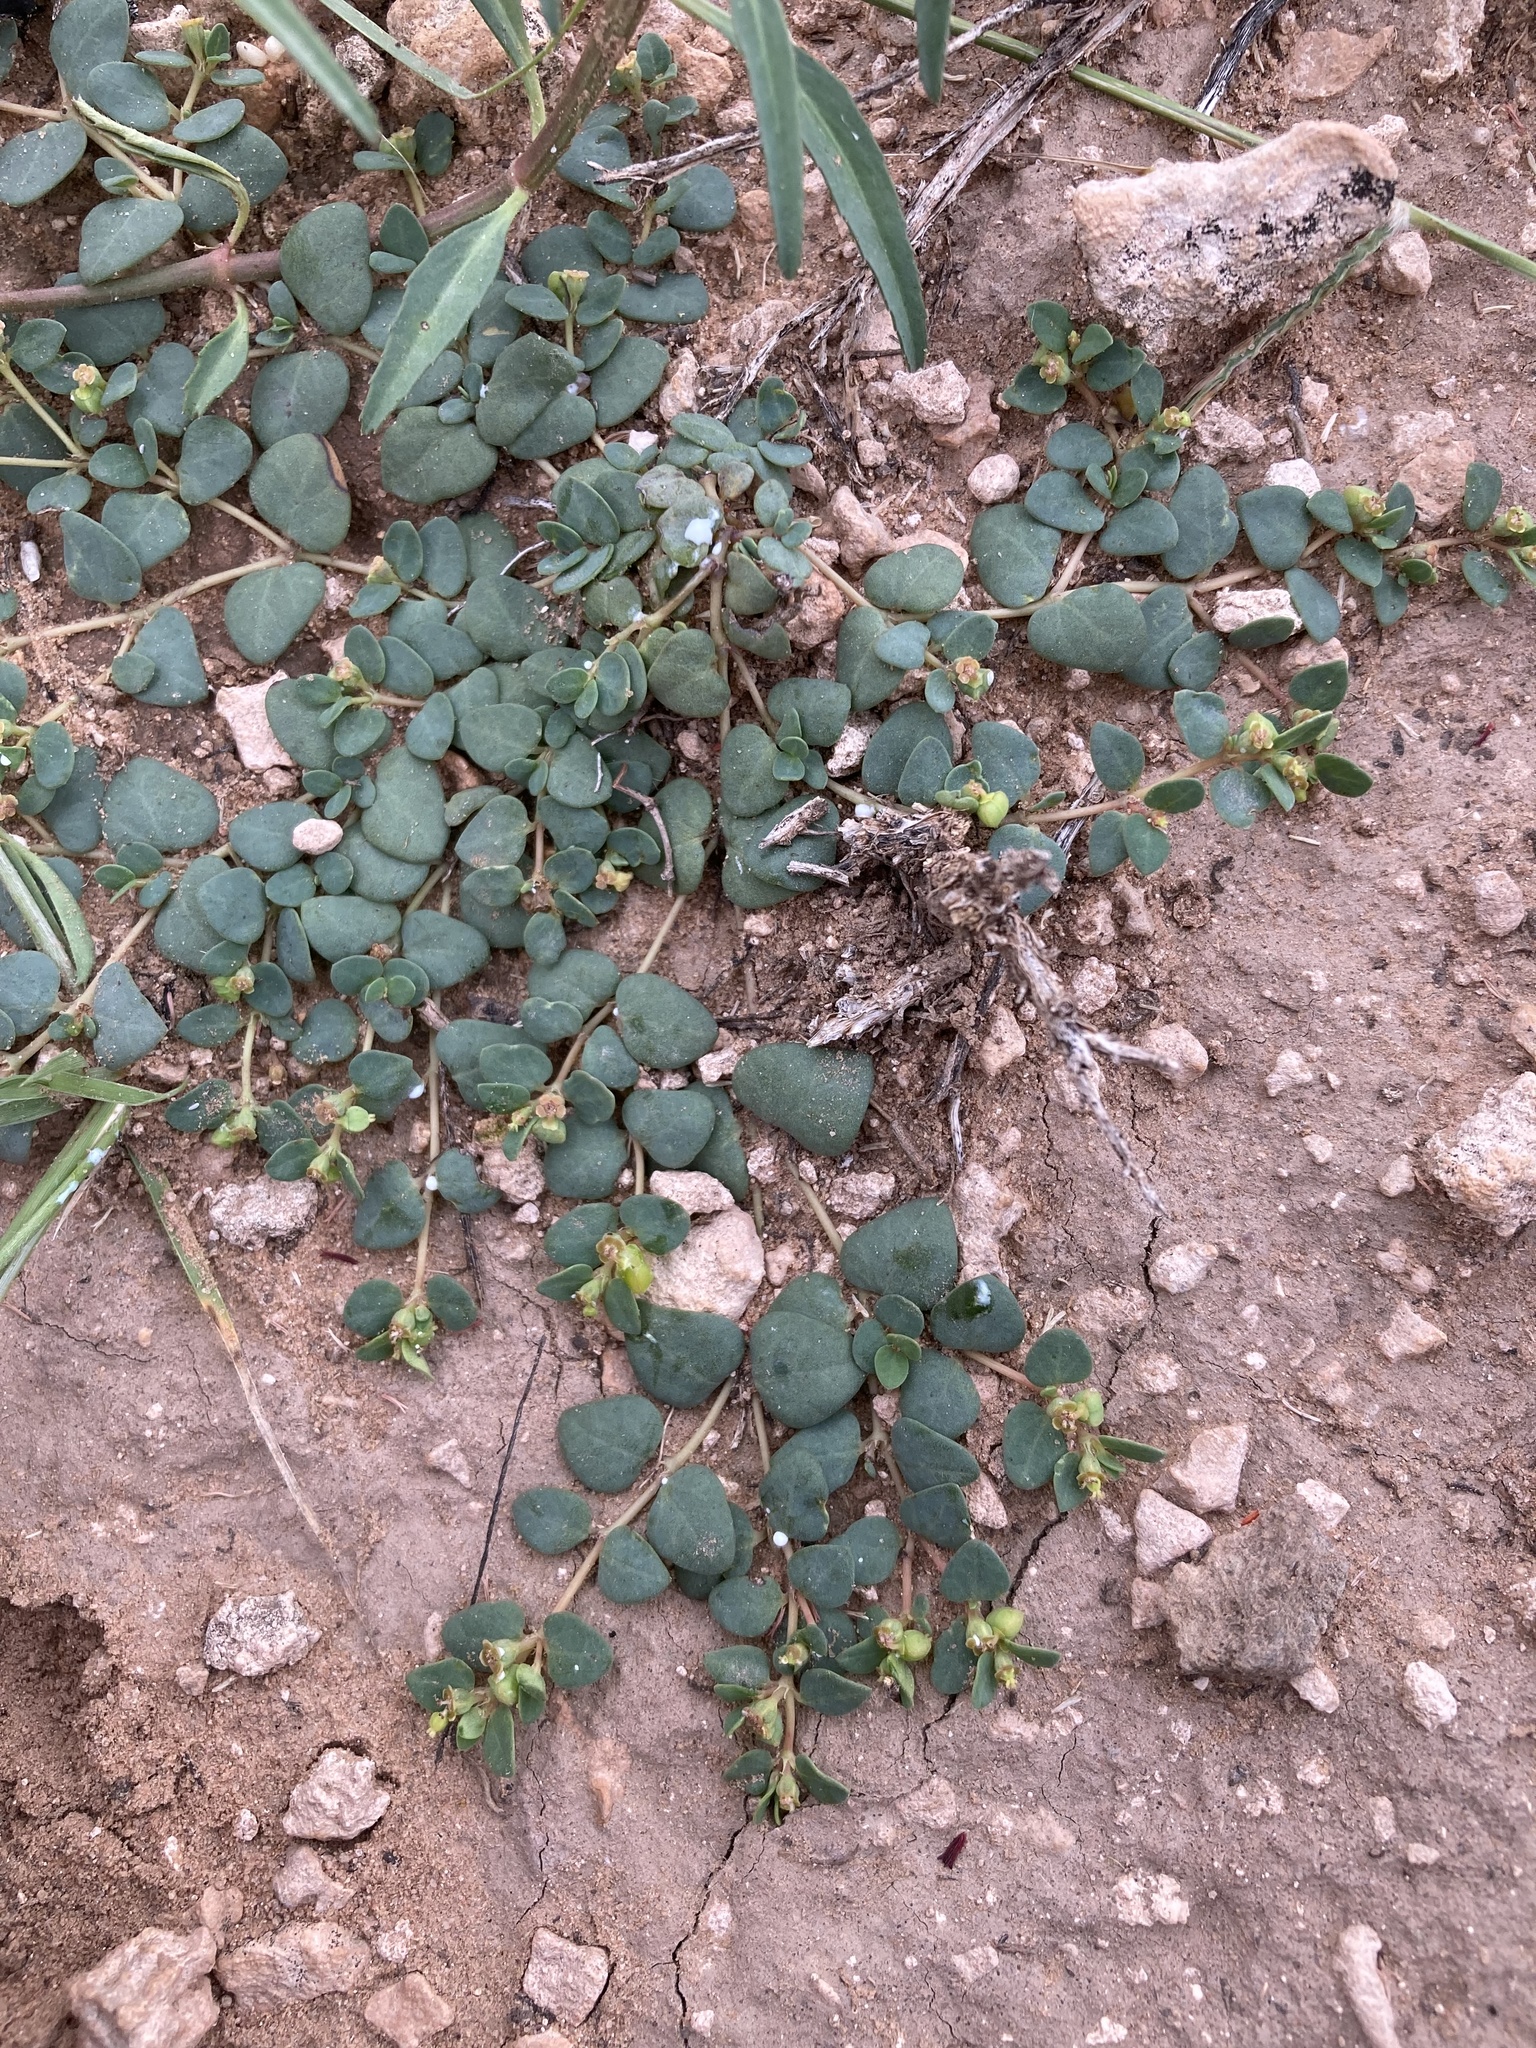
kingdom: Plantae
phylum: Tracheophyta
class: Magnoliopsida
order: Malpighiales
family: Euphorbiaceae
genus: Euphorbia
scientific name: Euphorbia fendleri
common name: Fendler's euphorbia
